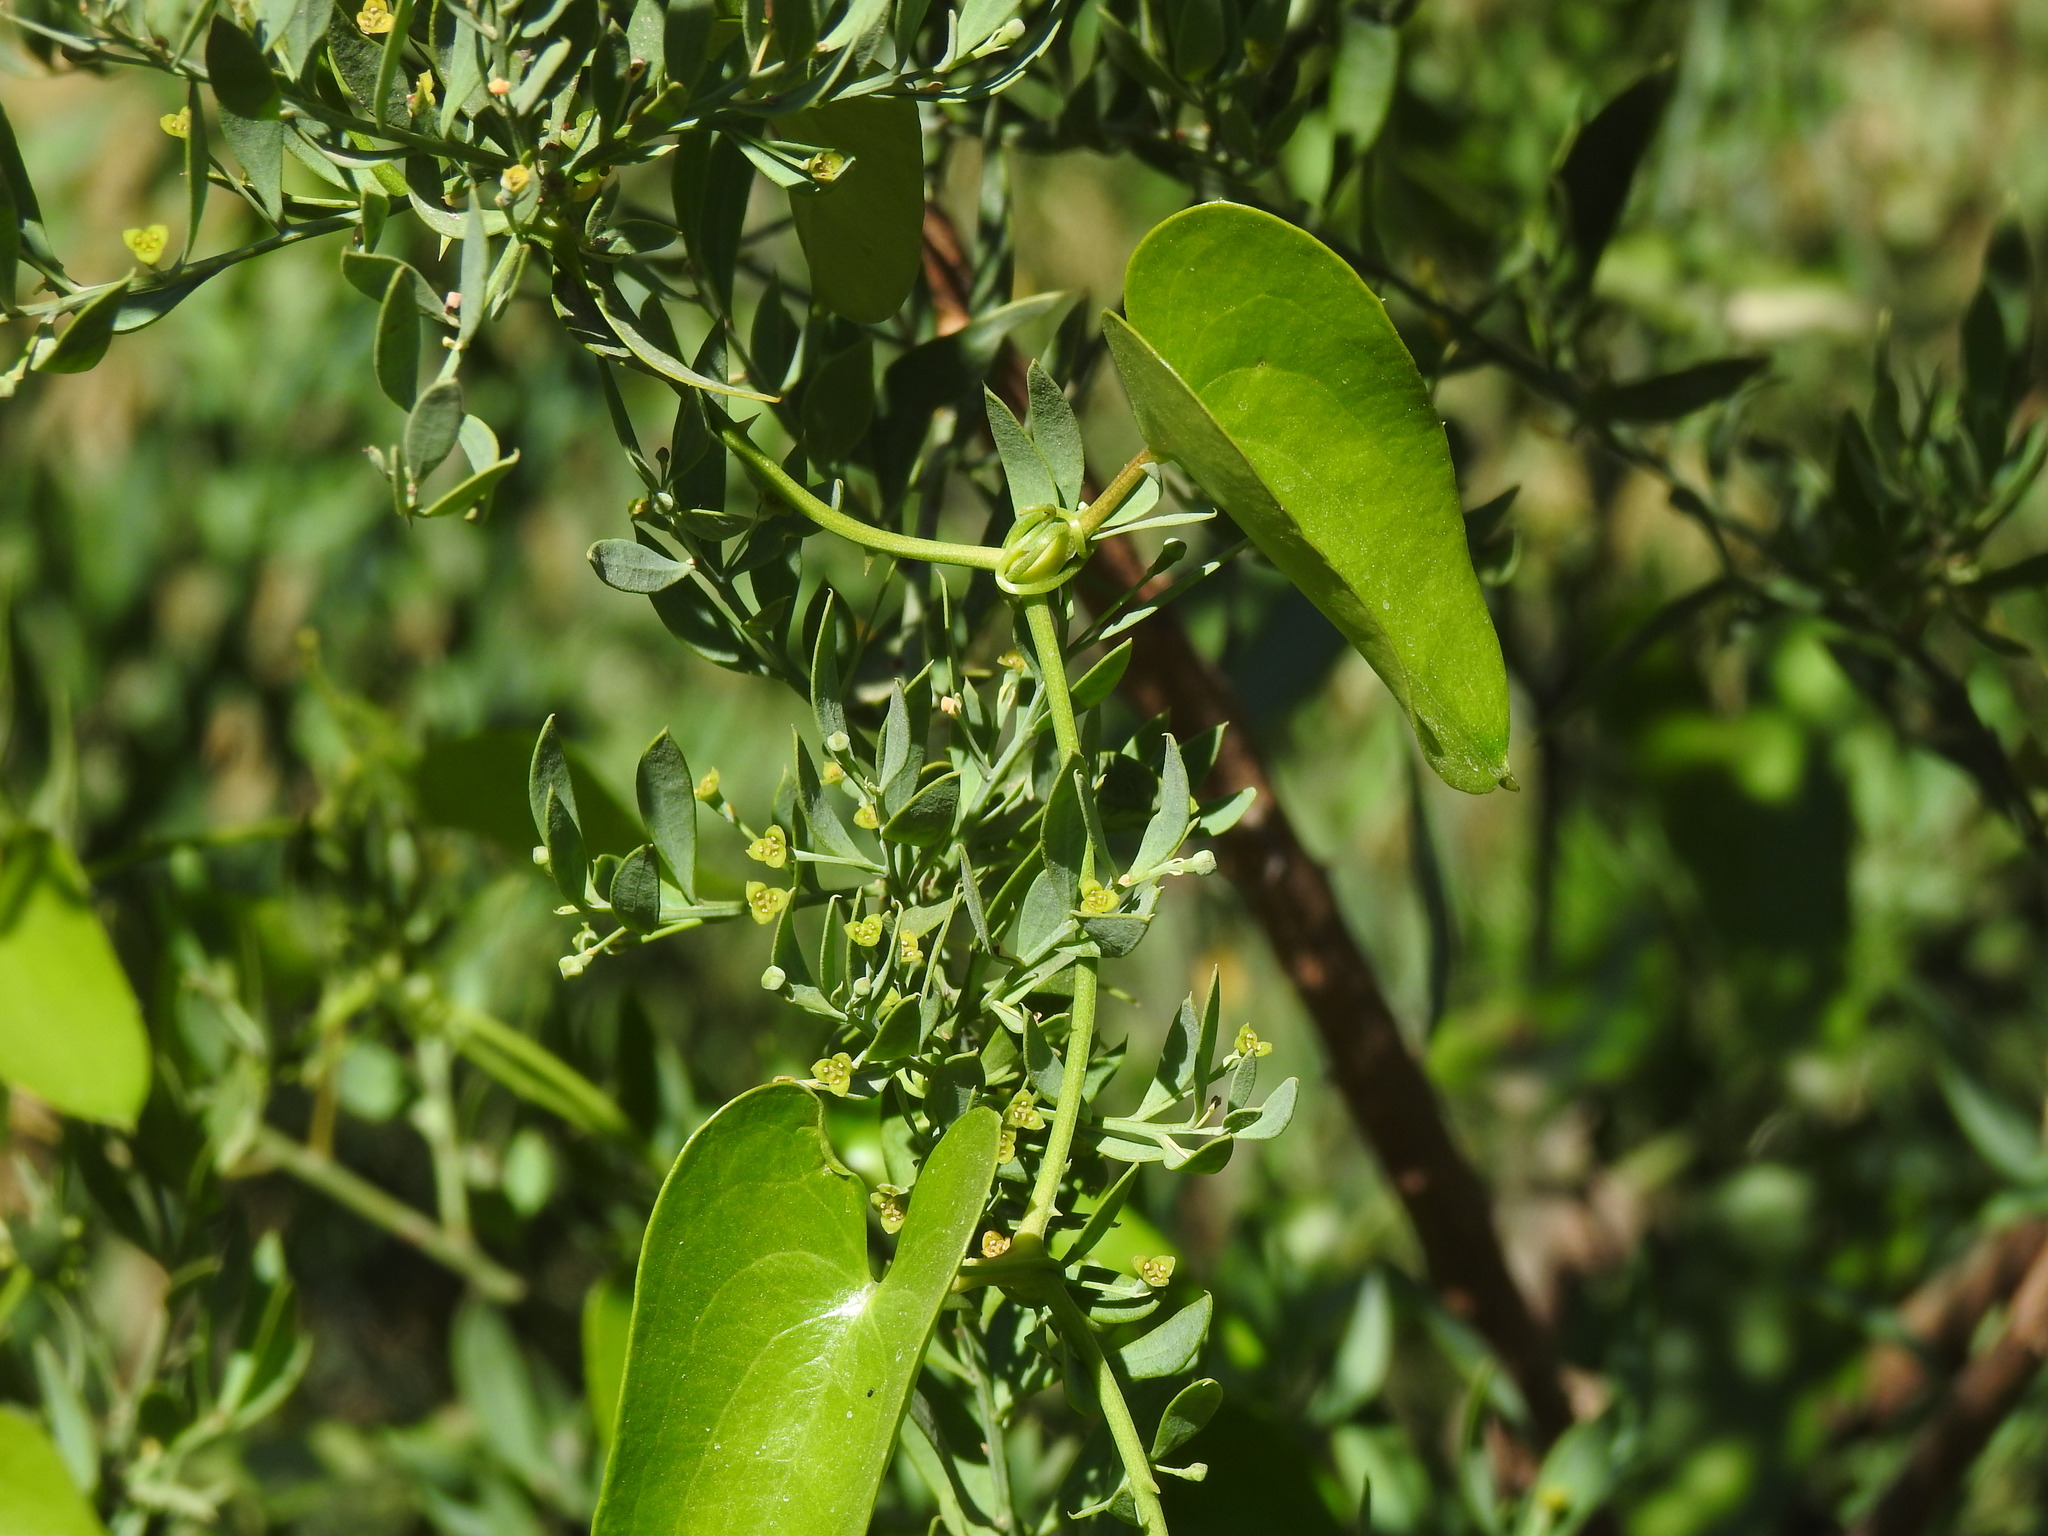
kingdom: Plantae
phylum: Tracheophyta
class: Magnoliopsida
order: Santalales
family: Santalaceae
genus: Osyris
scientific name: Osyris lanceolata
